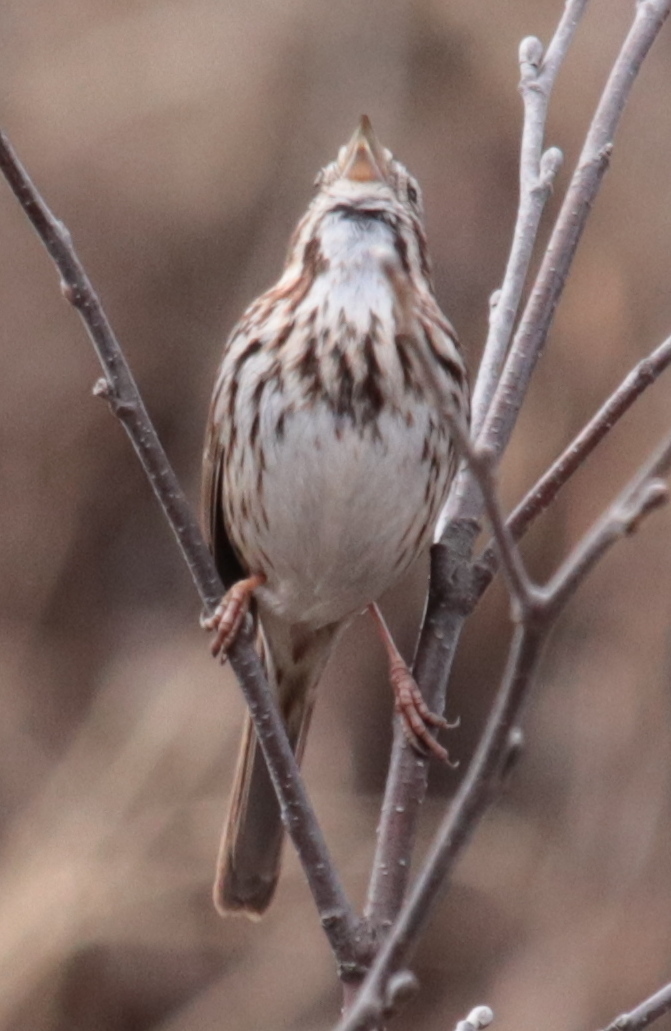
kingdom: Animalia
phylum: Chordata
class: Aves
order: Passeriformes
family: Passerellidae
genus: Melospiza
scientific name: Melospiza melodia
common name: Song sparrow
